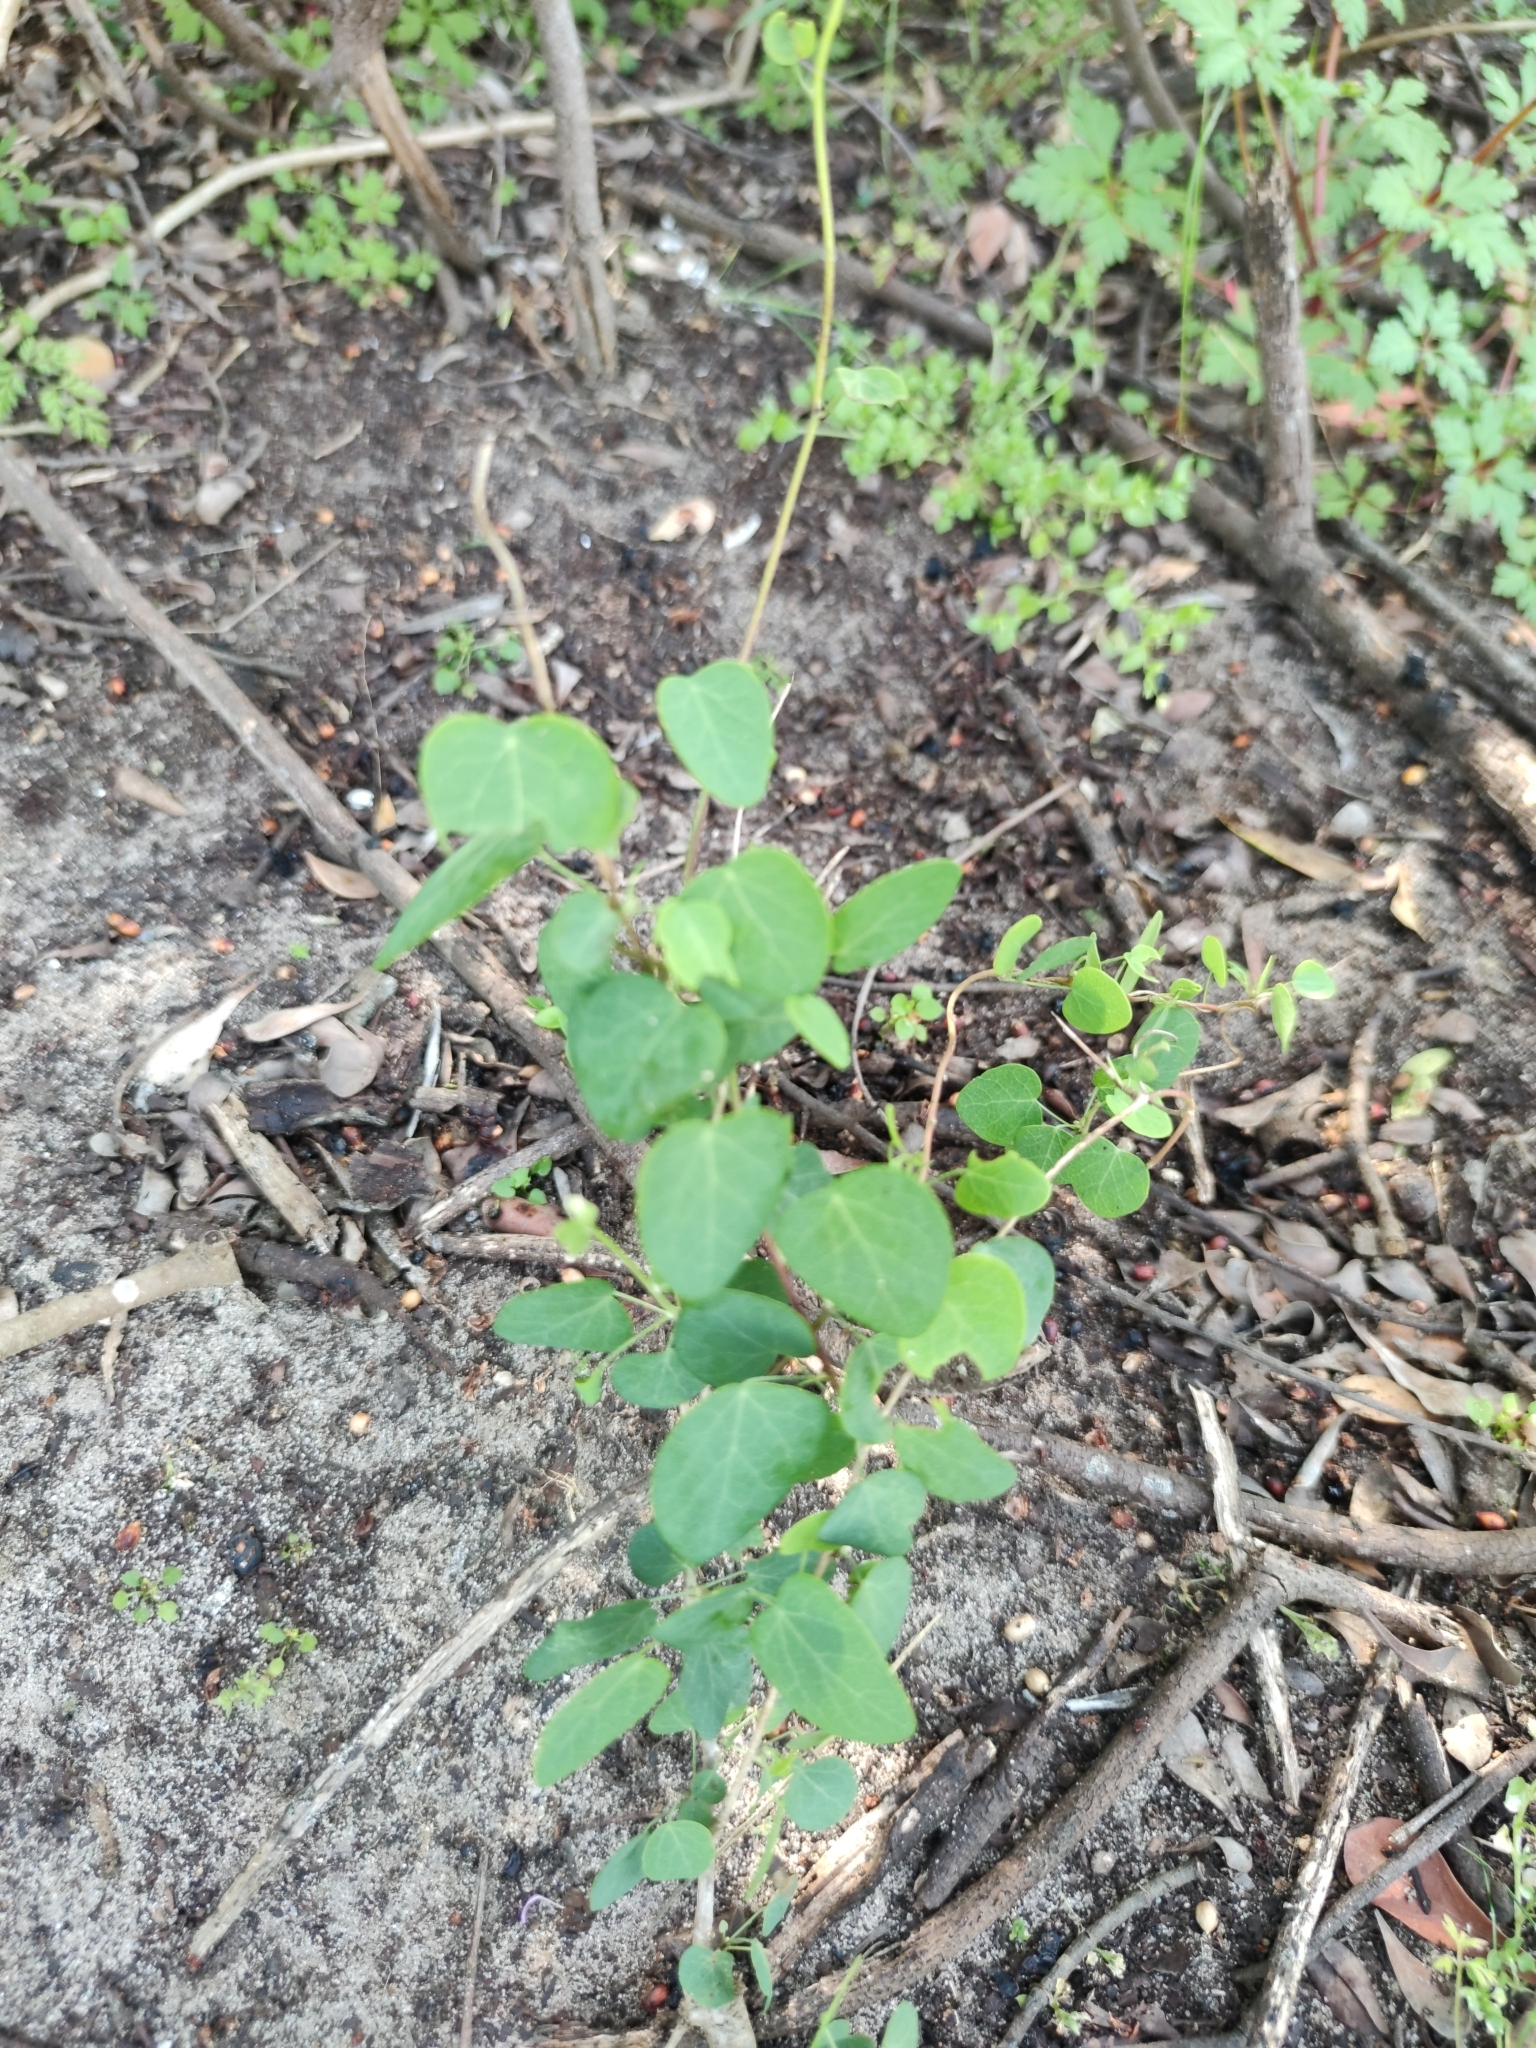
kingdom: Plantae
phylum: Tracheophyta
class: Magnoliopsida
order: Ranunculales
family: Menispermaceae
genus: Cissampelos
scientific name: Cissampelos capensis
